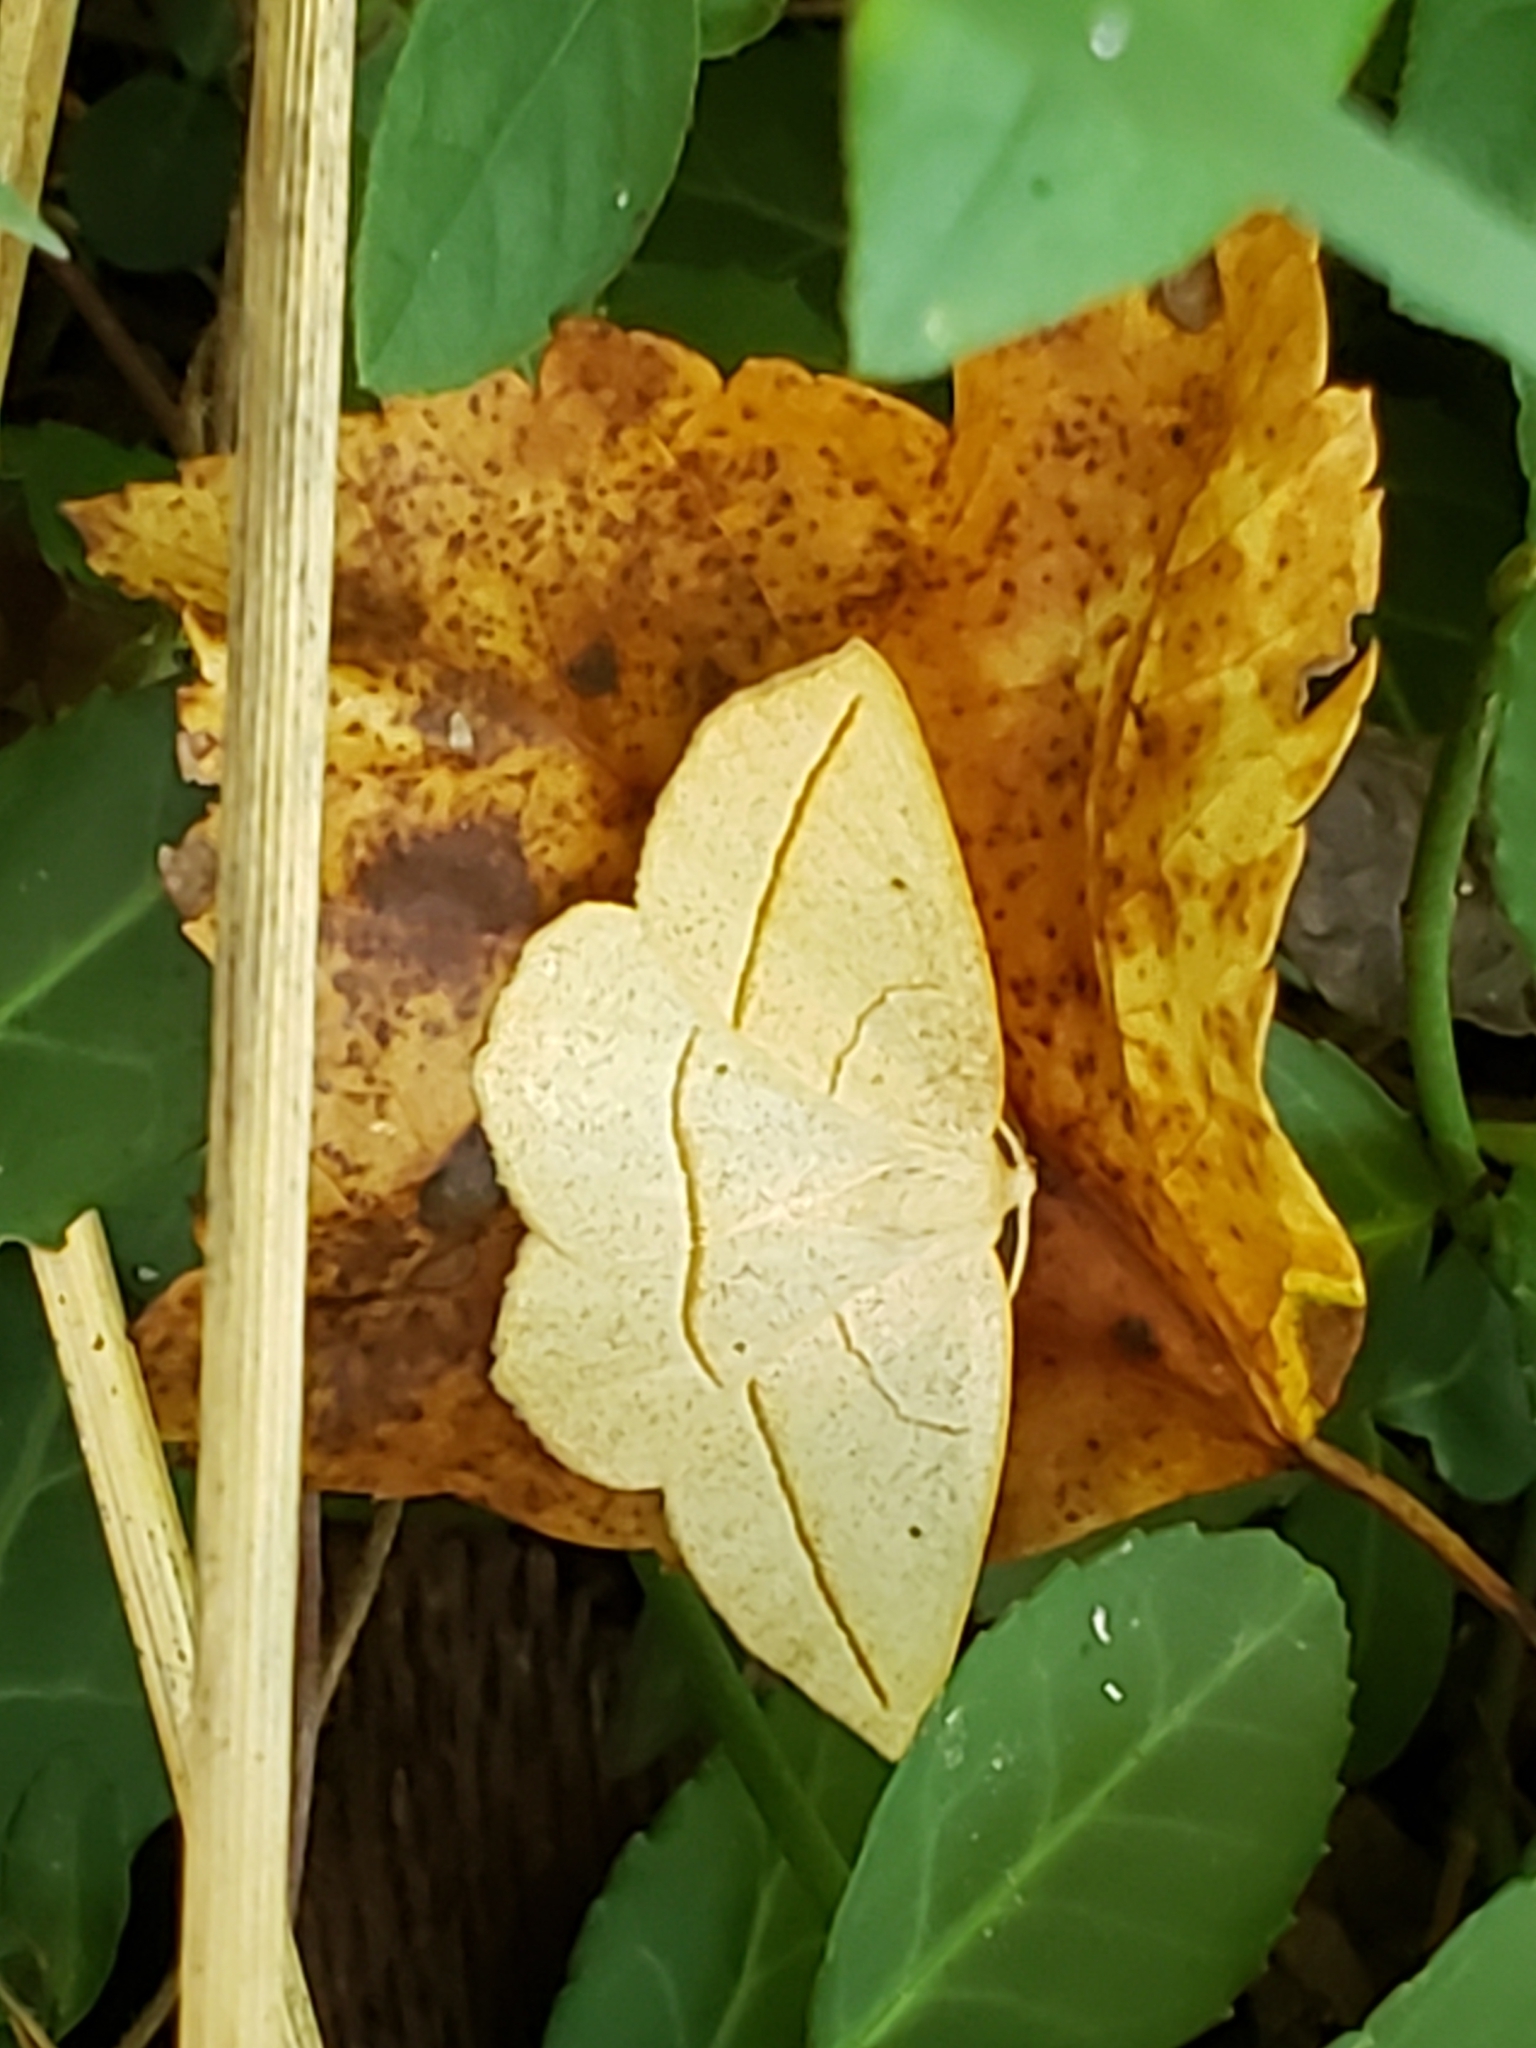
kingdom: Animalia
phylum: Arthropoda
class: Insecta
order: Lepidoptera
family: Geometridae
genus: Eusarca
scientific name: Eusarca confusaria
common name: Confused eusarca
